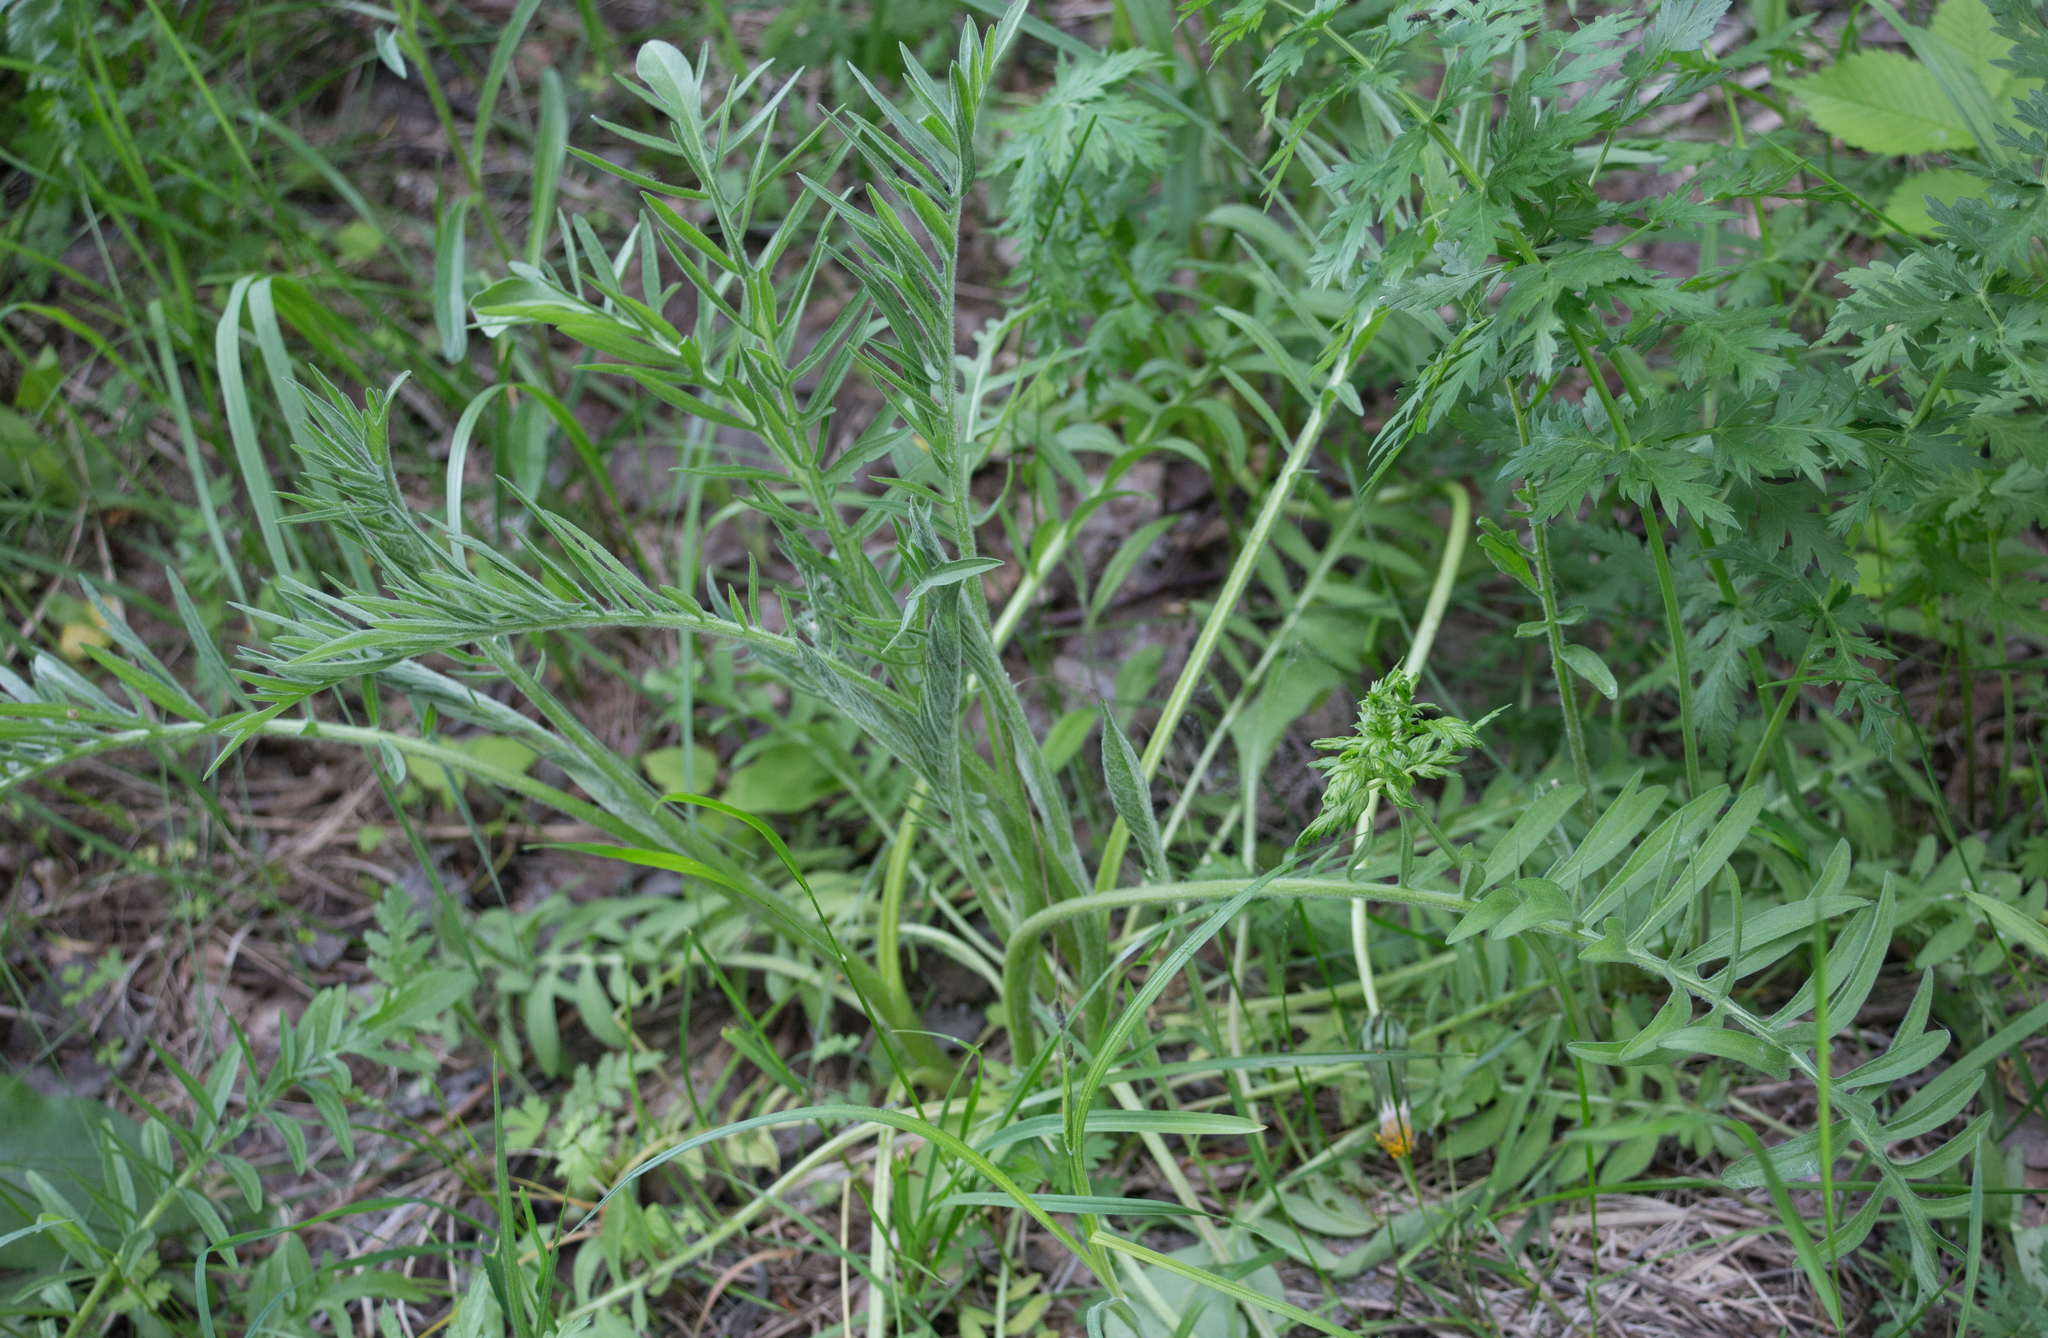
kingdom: Plantae
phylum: Tracheophyta
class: Magnoliopsida
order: Asterales
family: Asteraceae
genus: Centaurea
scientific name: Centaurea scabiosa
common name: Greater knapweed
